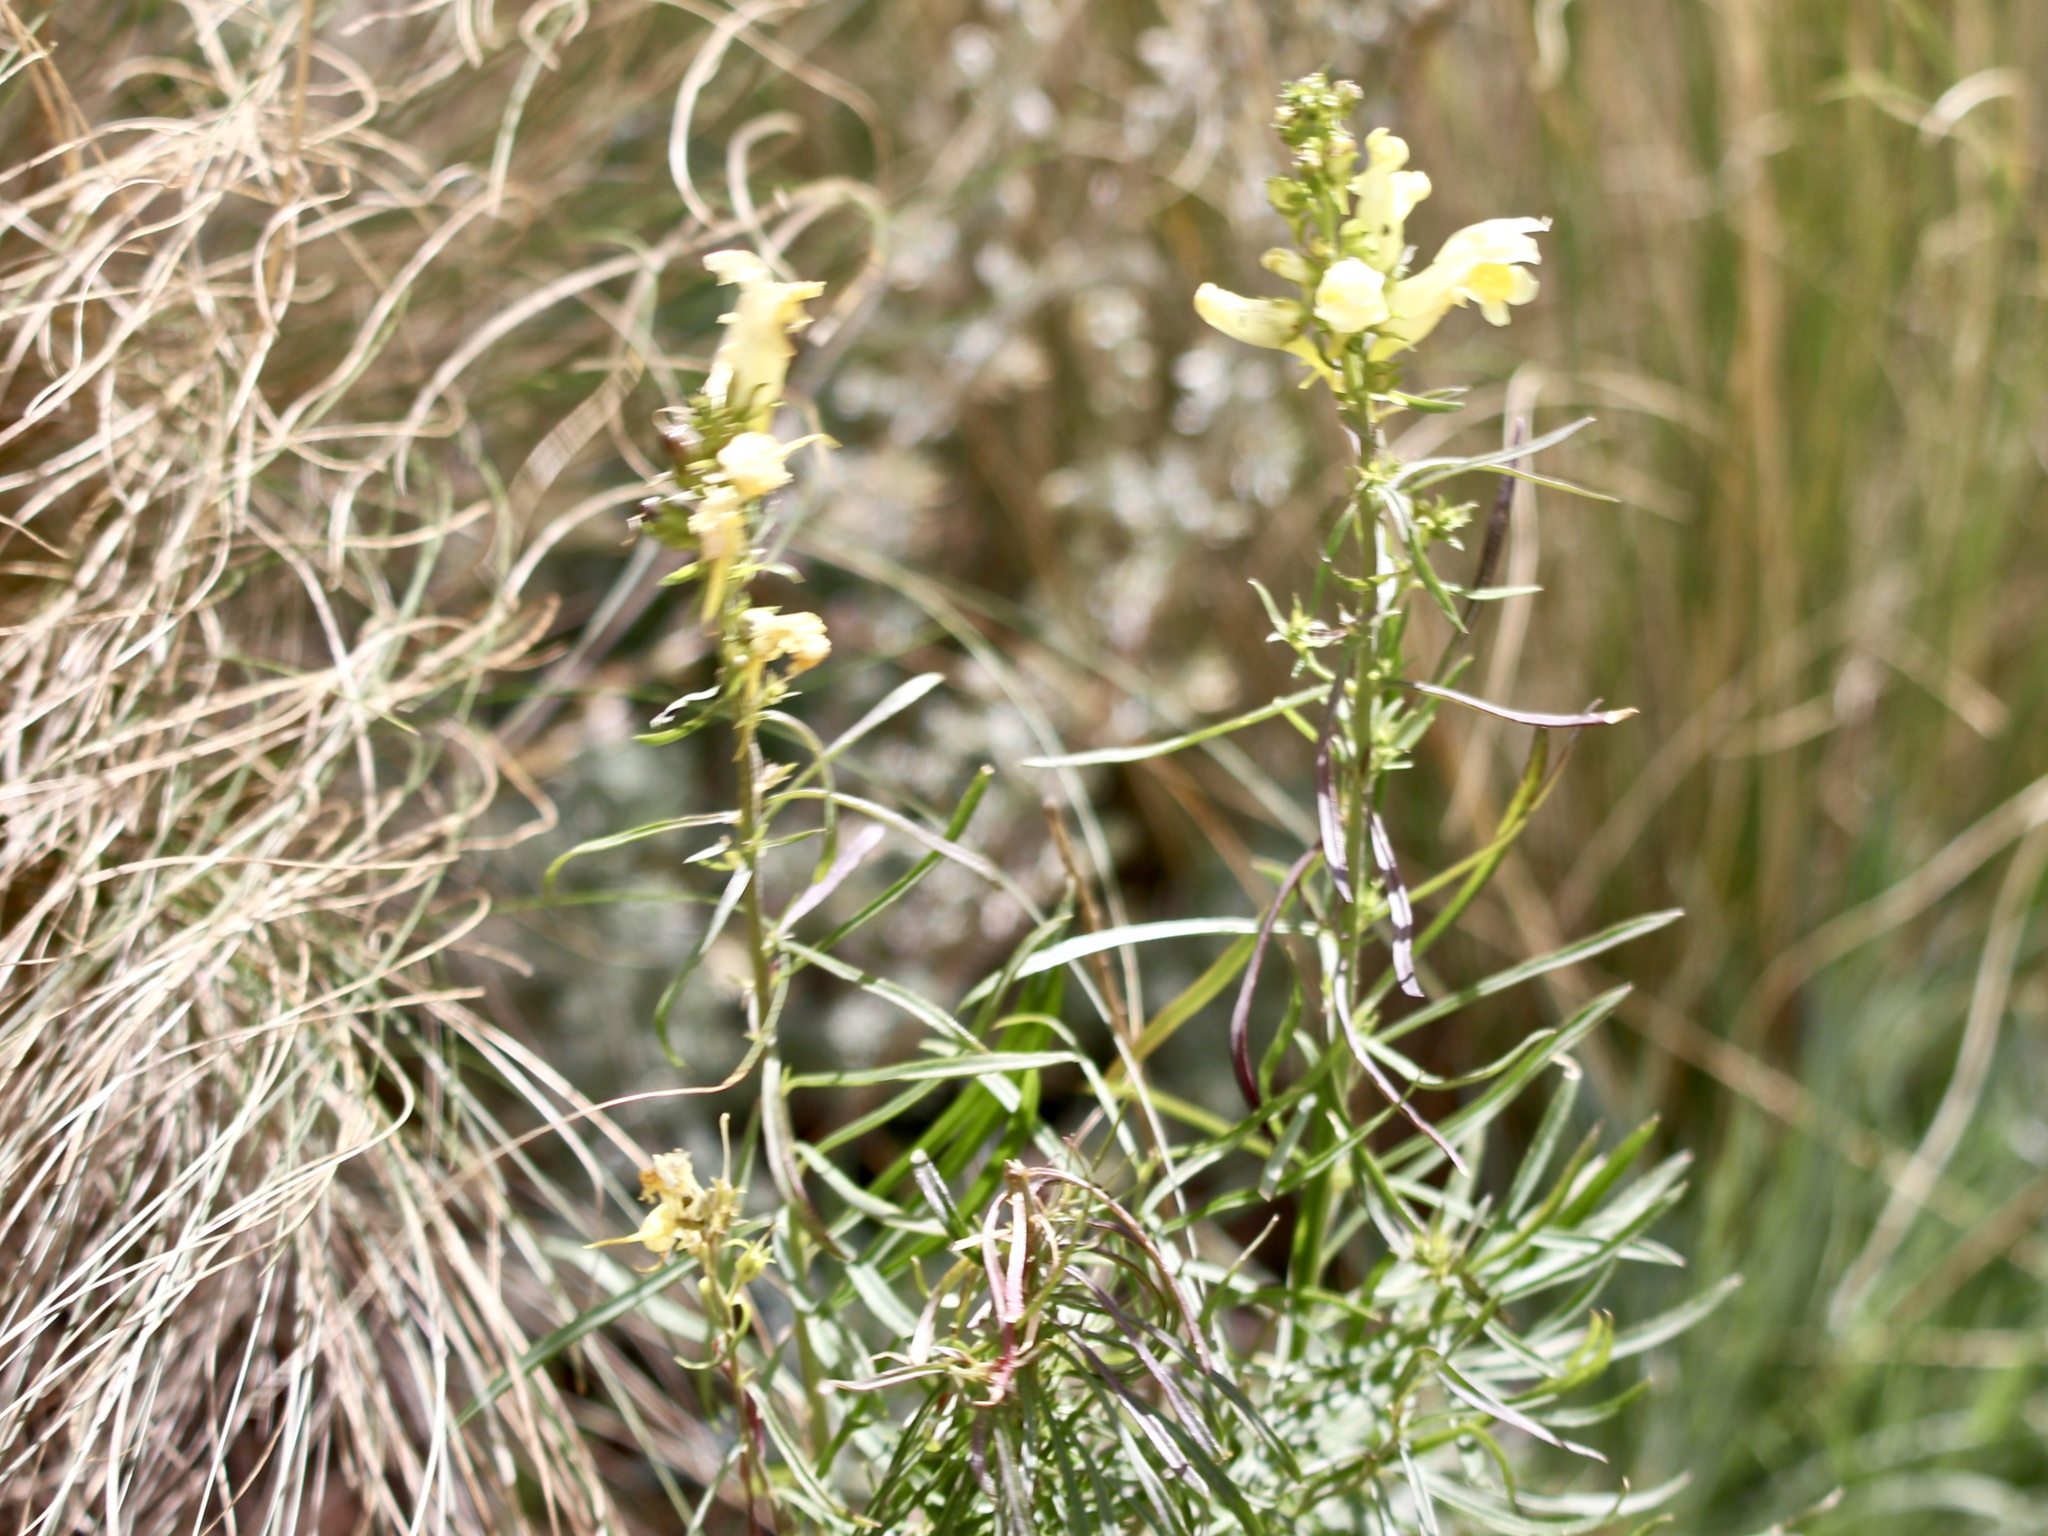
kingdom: Plantae
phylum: Tracheophyta
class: Magnoliopsida
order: Lamiales
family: Plantaginaceae
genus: Linaria
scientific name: Linaria vulgaris
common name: Butter and eggs
